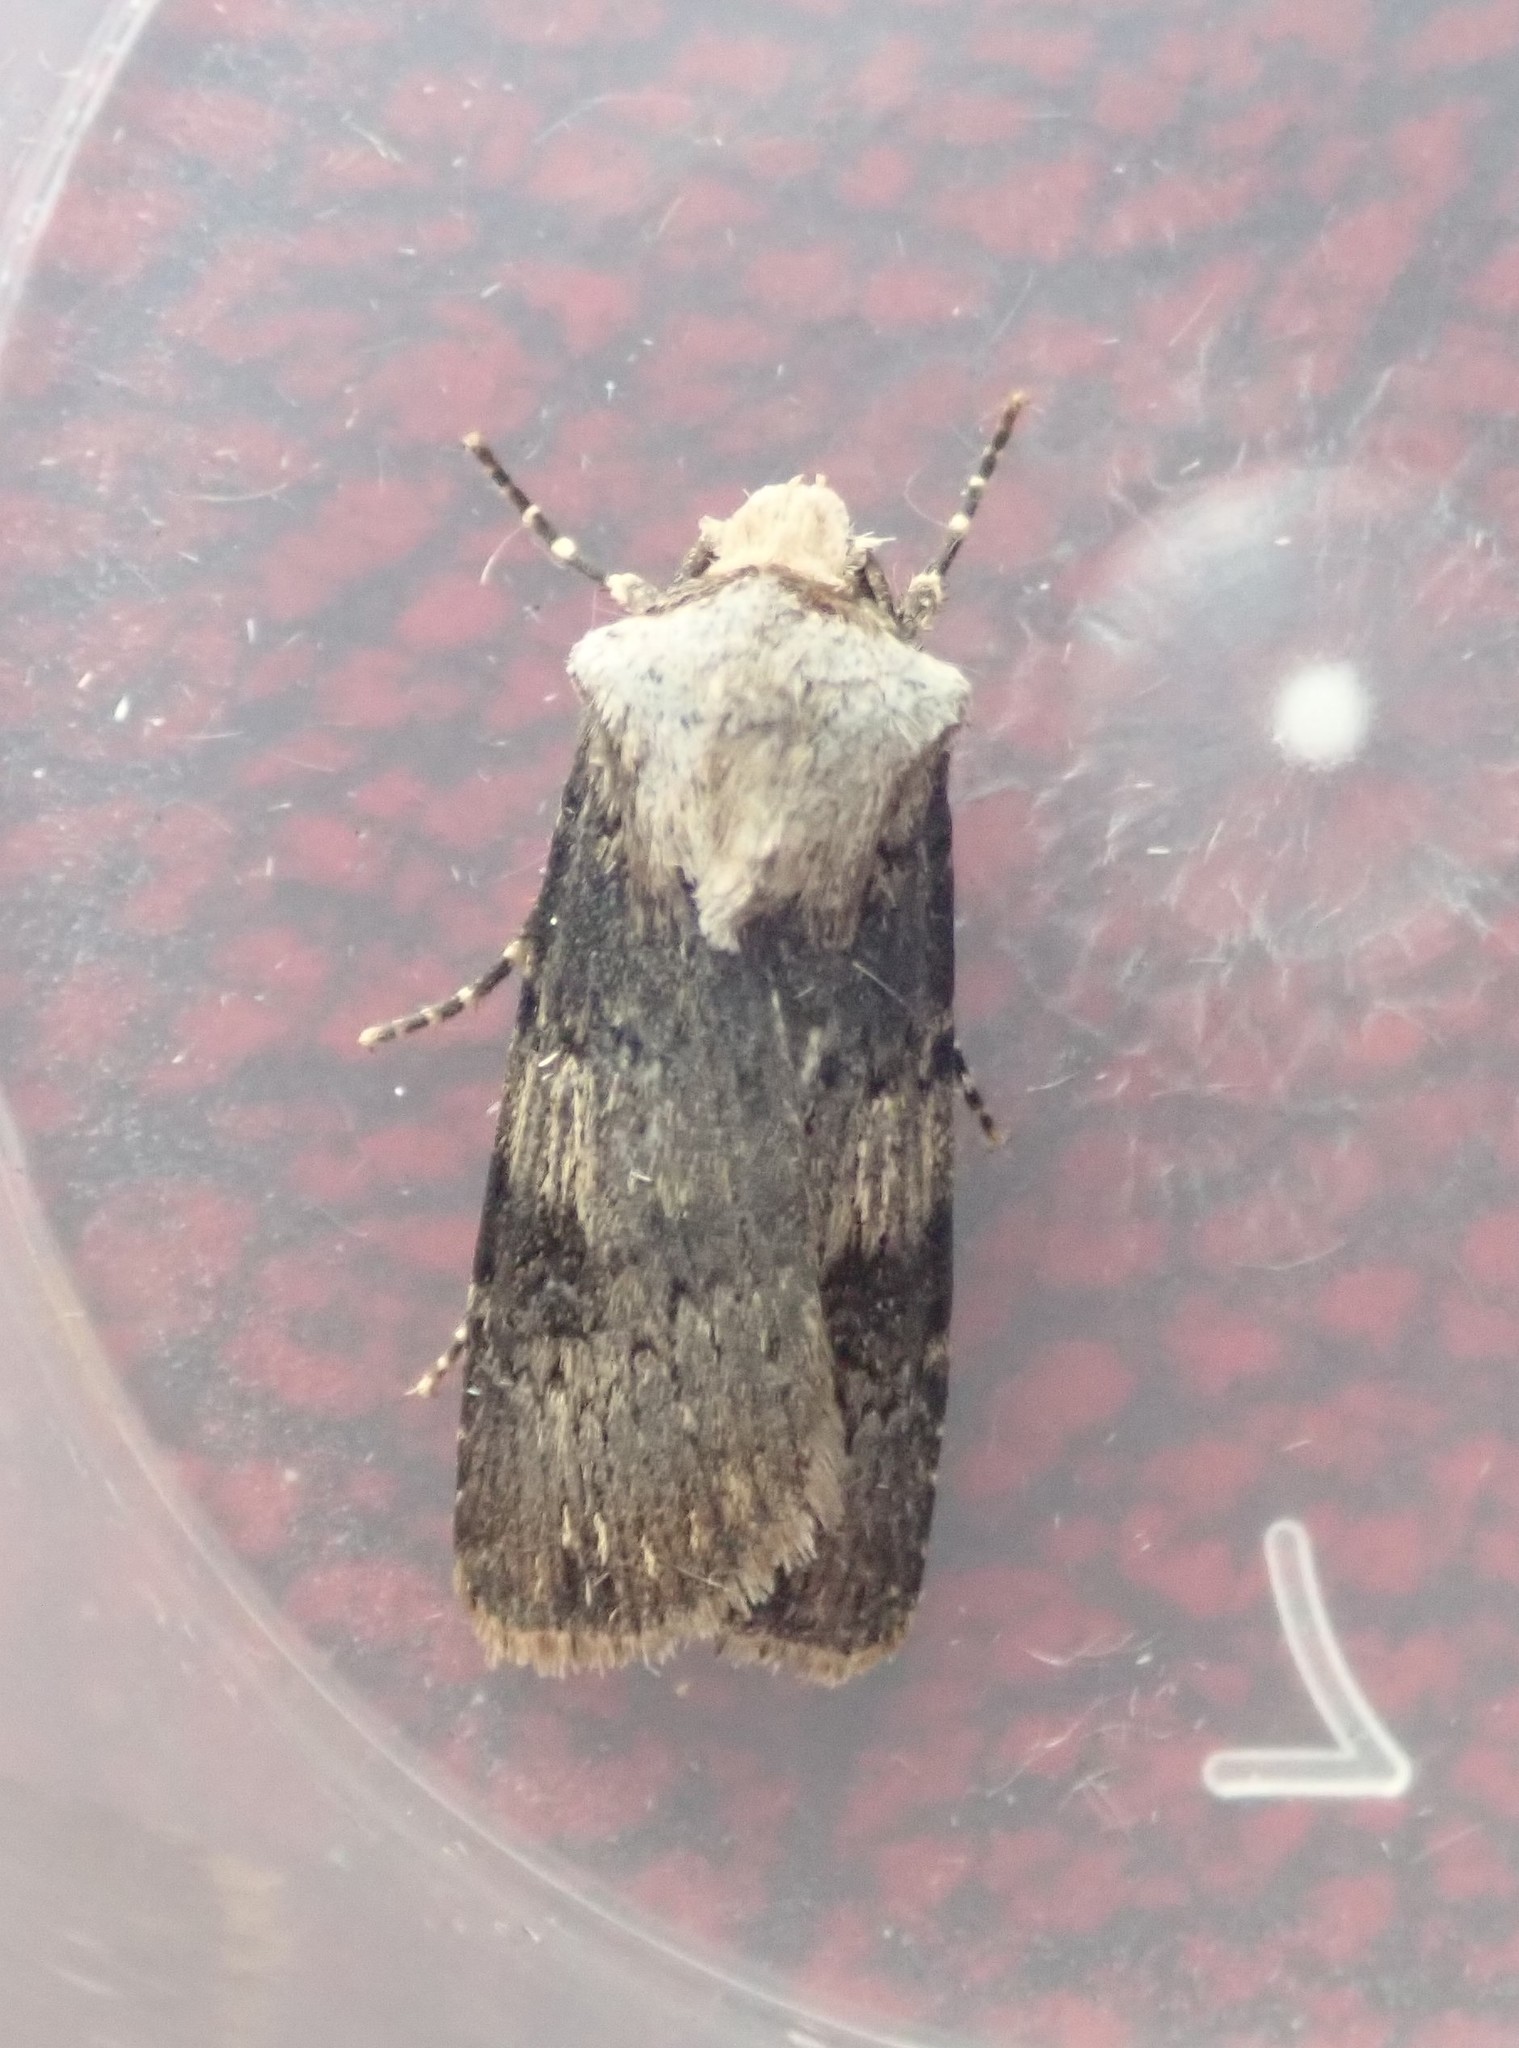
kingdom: Animalia
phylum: Arthropoda
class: Insecta
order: Lepidoptera
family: Noctuidae
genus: Agrotis
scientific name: Agrotis puta
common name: Shuttle-shaped dart
